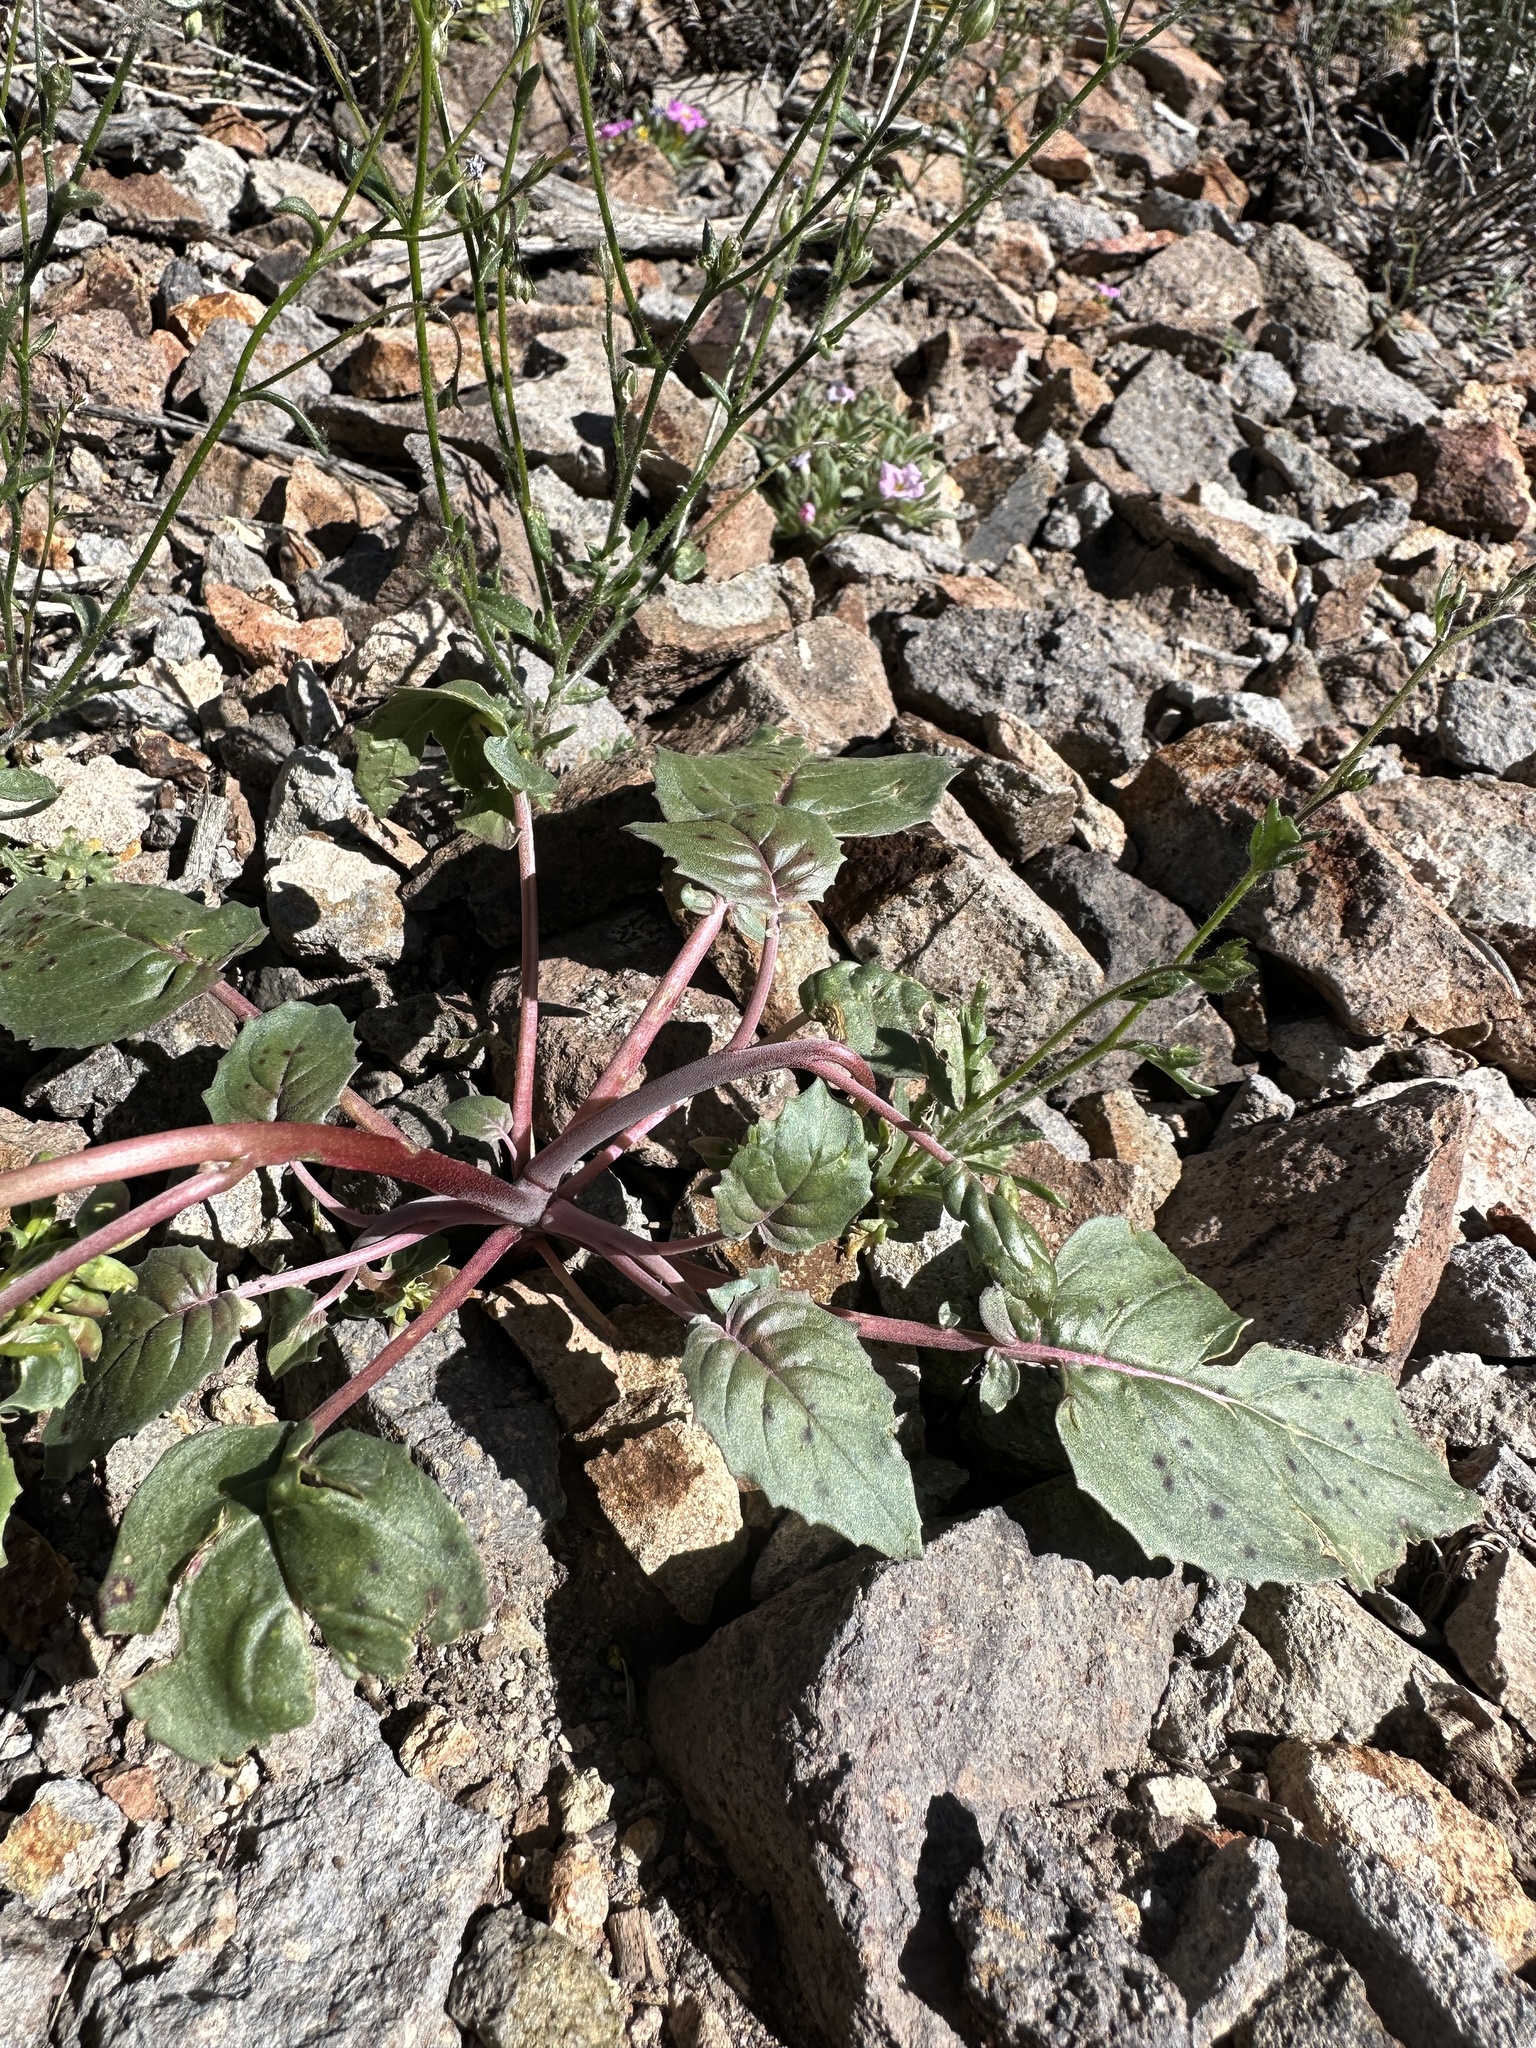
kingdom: Plantae
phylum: Tracheophyta
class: Magnoliopsida
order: Myrtales
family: Onagraceae
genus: Chylismia
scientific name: Chylismia claviformis
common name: Browneyes
